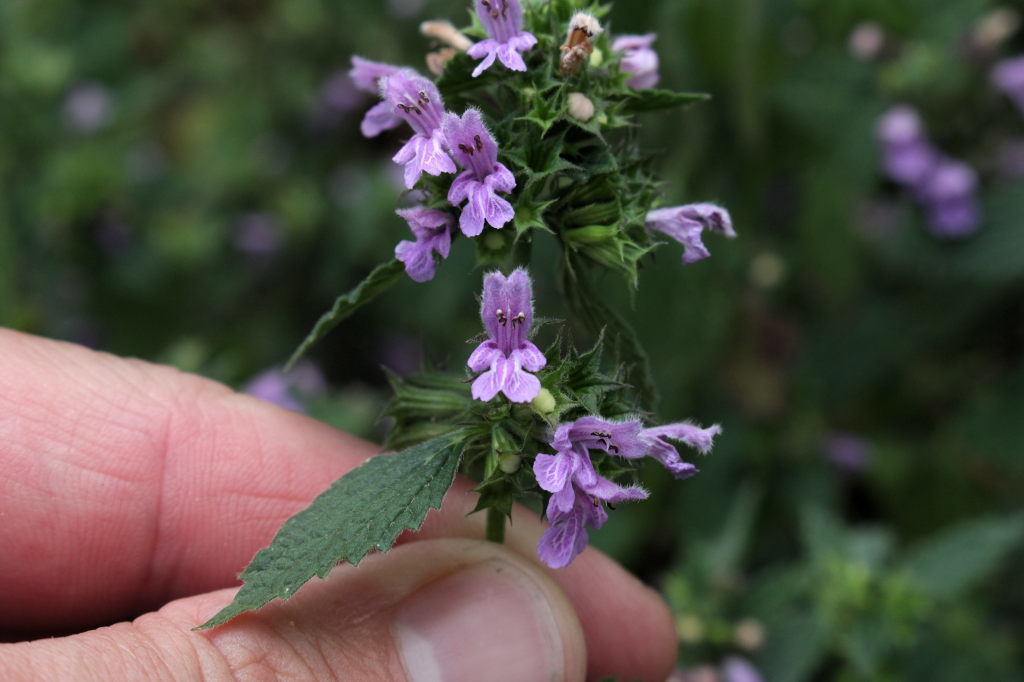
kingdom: Plantae
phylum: Tracheophyta
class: Magnoliopsida
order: Lamiales
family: Lamiaceae
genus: Ballota
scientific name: Ballota nigra
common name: Black horehound
